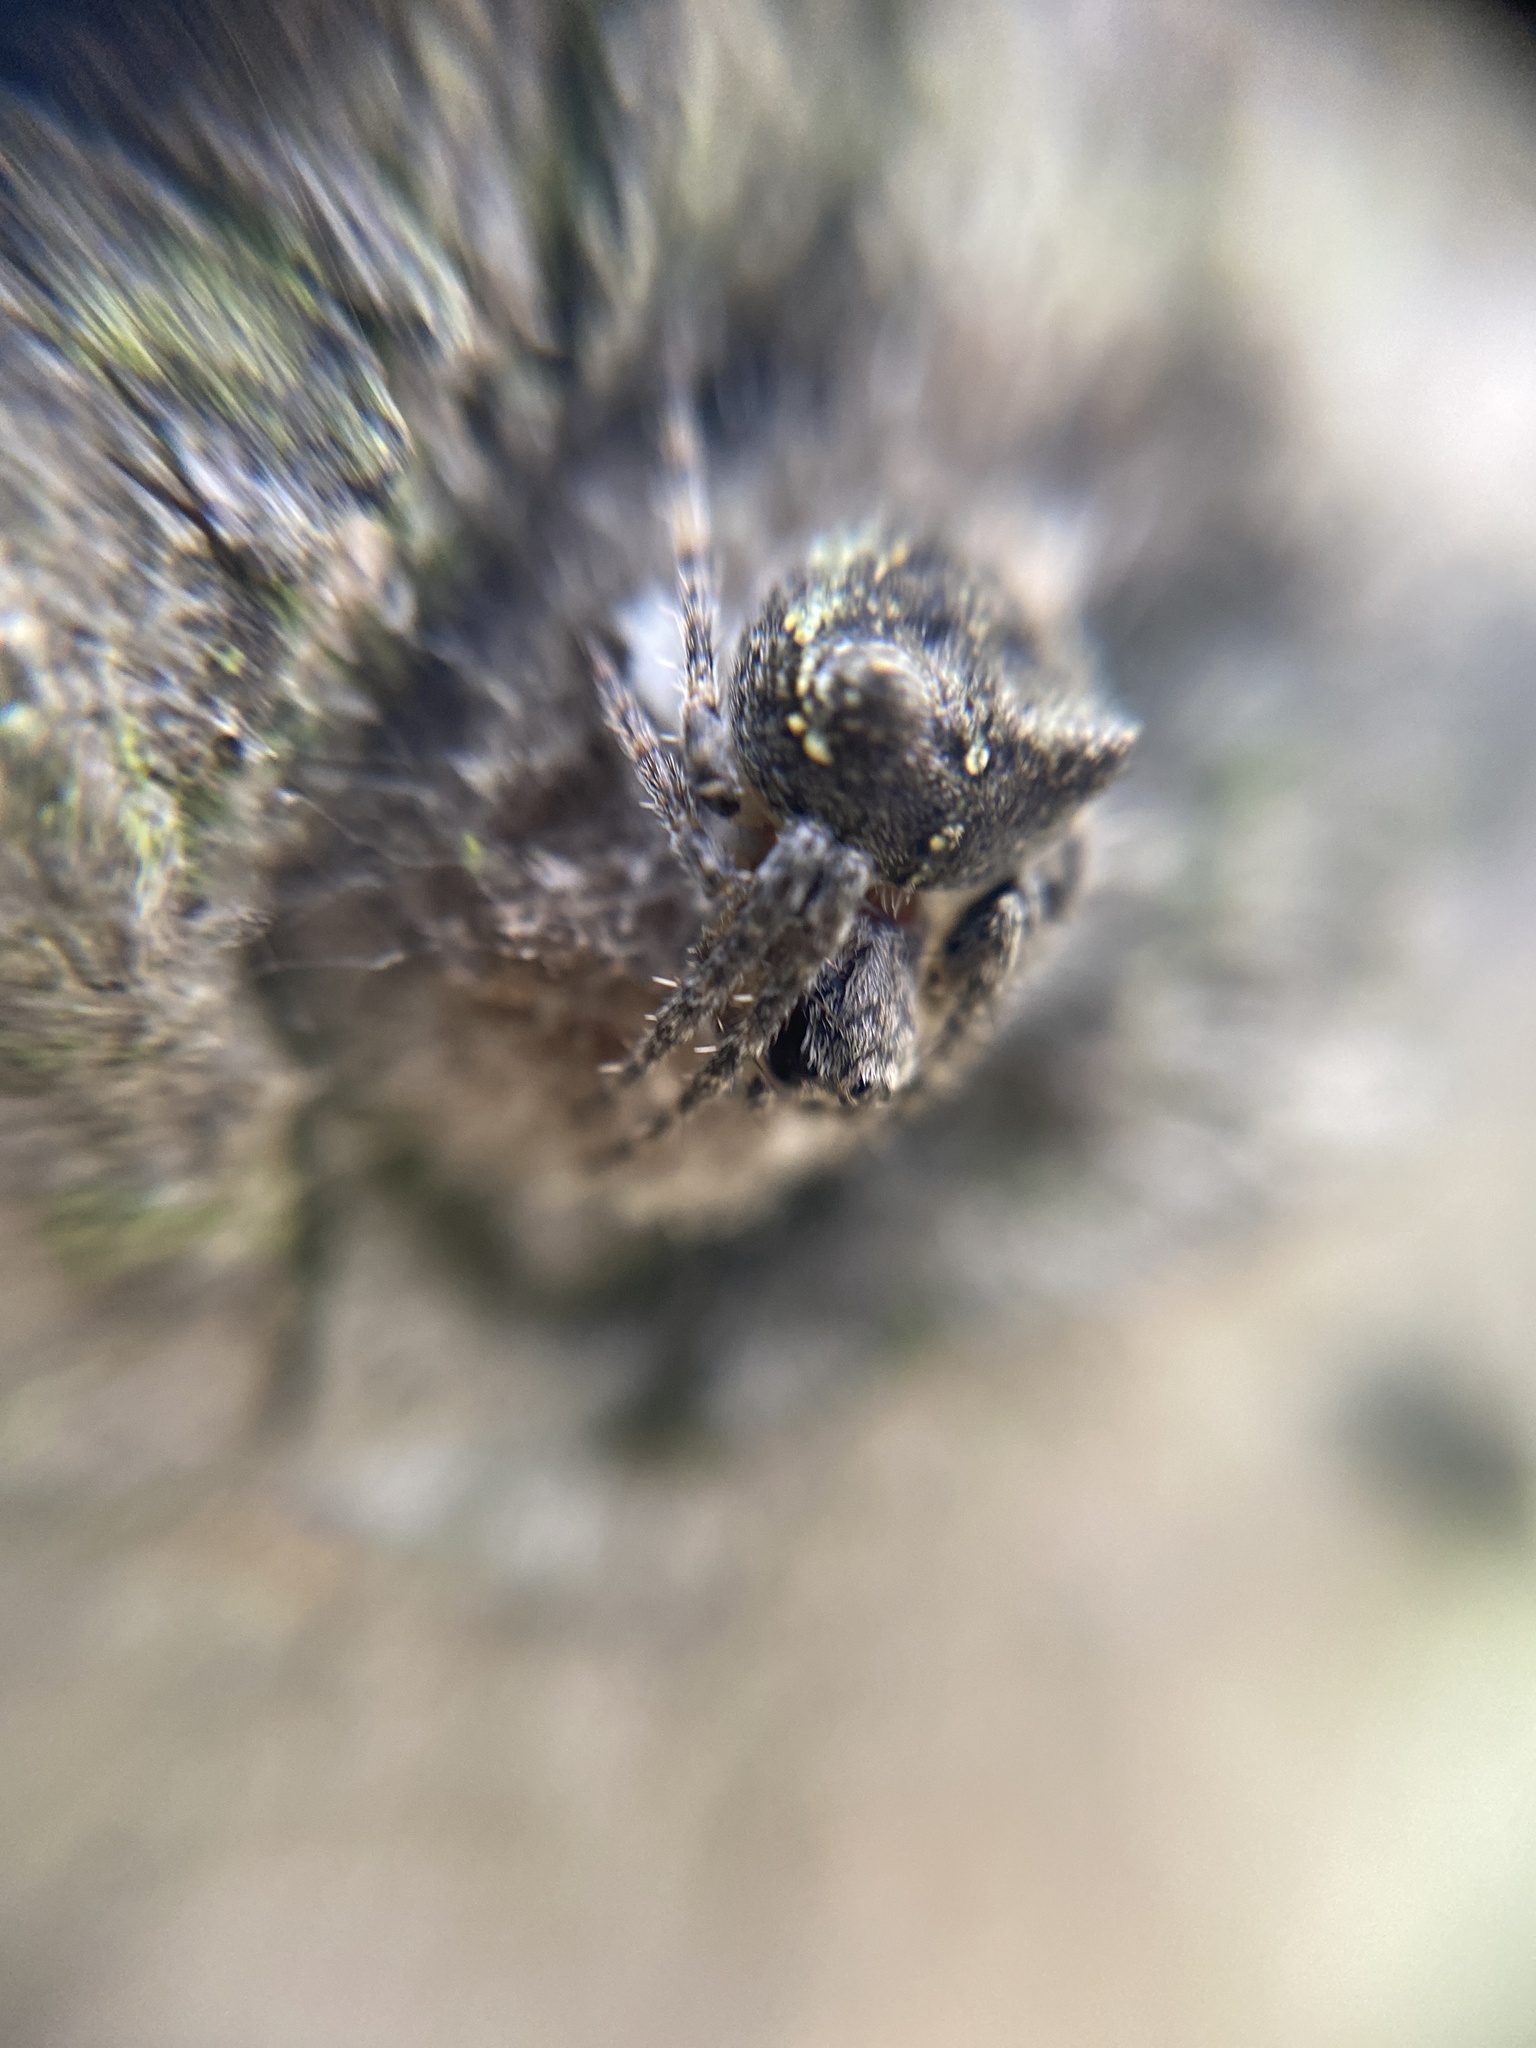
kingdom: Animalia
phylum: Arthropoda
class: Arachnida
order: Araneae
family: Araneidae
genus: Gibbaranea
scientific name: Gibbaranea gibbosa
